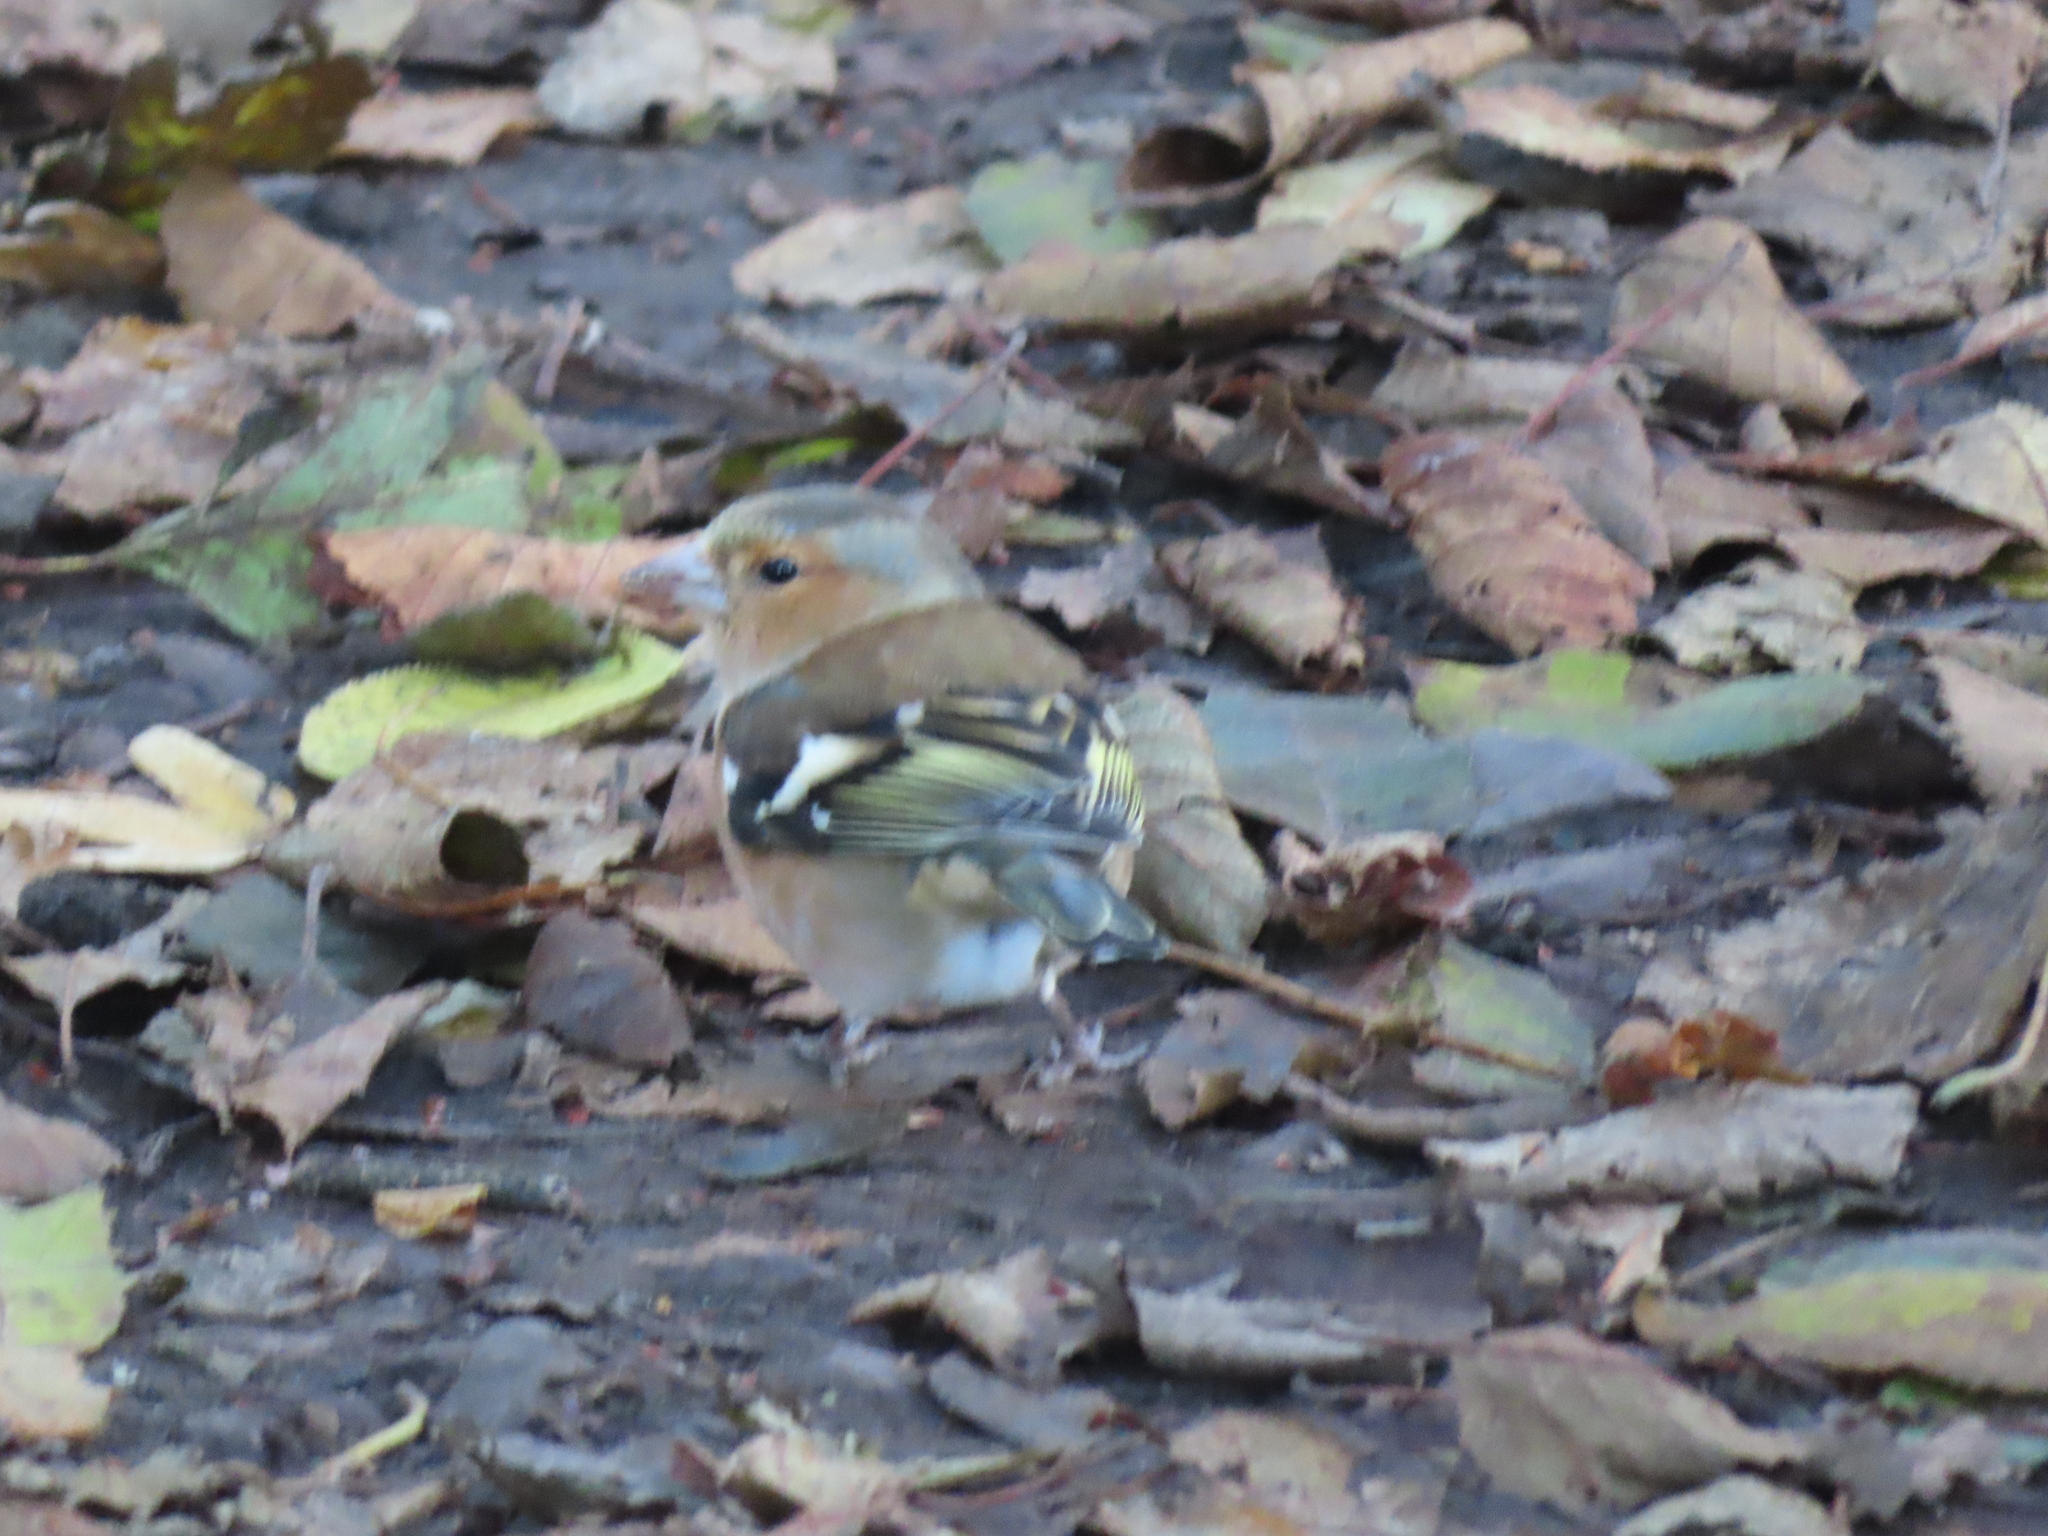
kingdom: Animalia
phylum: Chordata
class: Aves
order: Passeriformes
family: Fringillidae
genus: Fringilla
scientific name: Fringilla coelebs
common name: Common chaffinch
